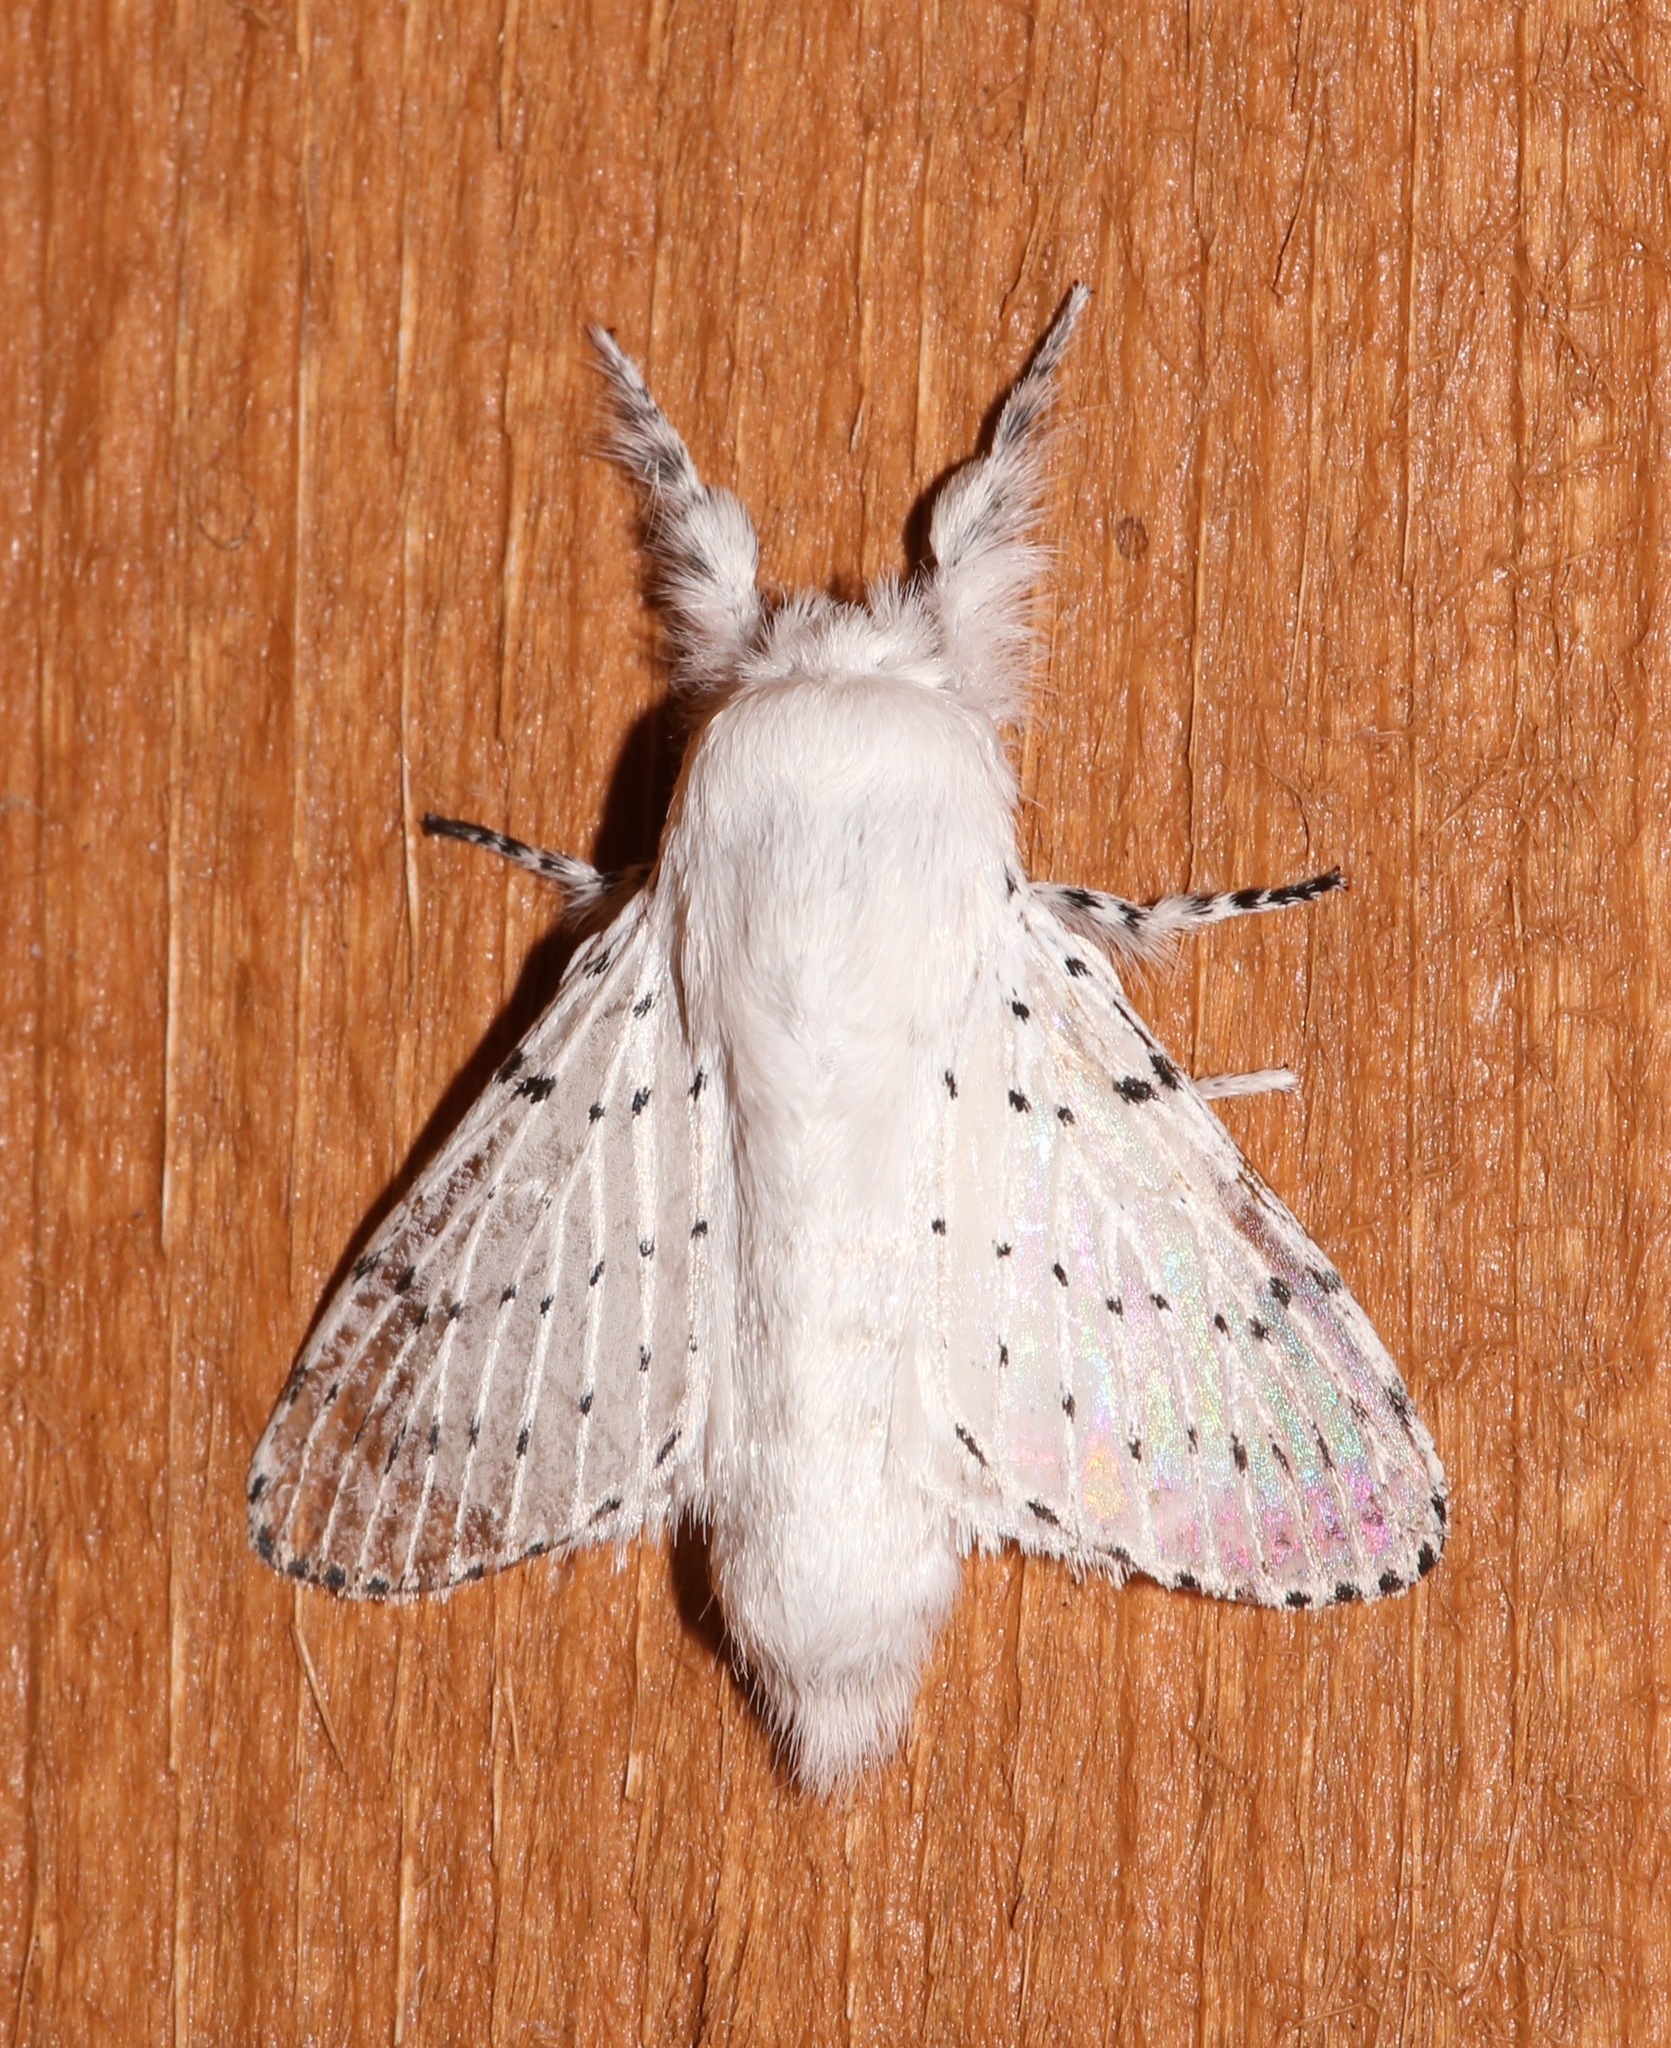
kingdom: Animalia
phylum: Arthropoda
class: Insecta
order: Lepidoptera
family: Lasiocampidae
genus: Artace
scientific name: Artace cribrarius
